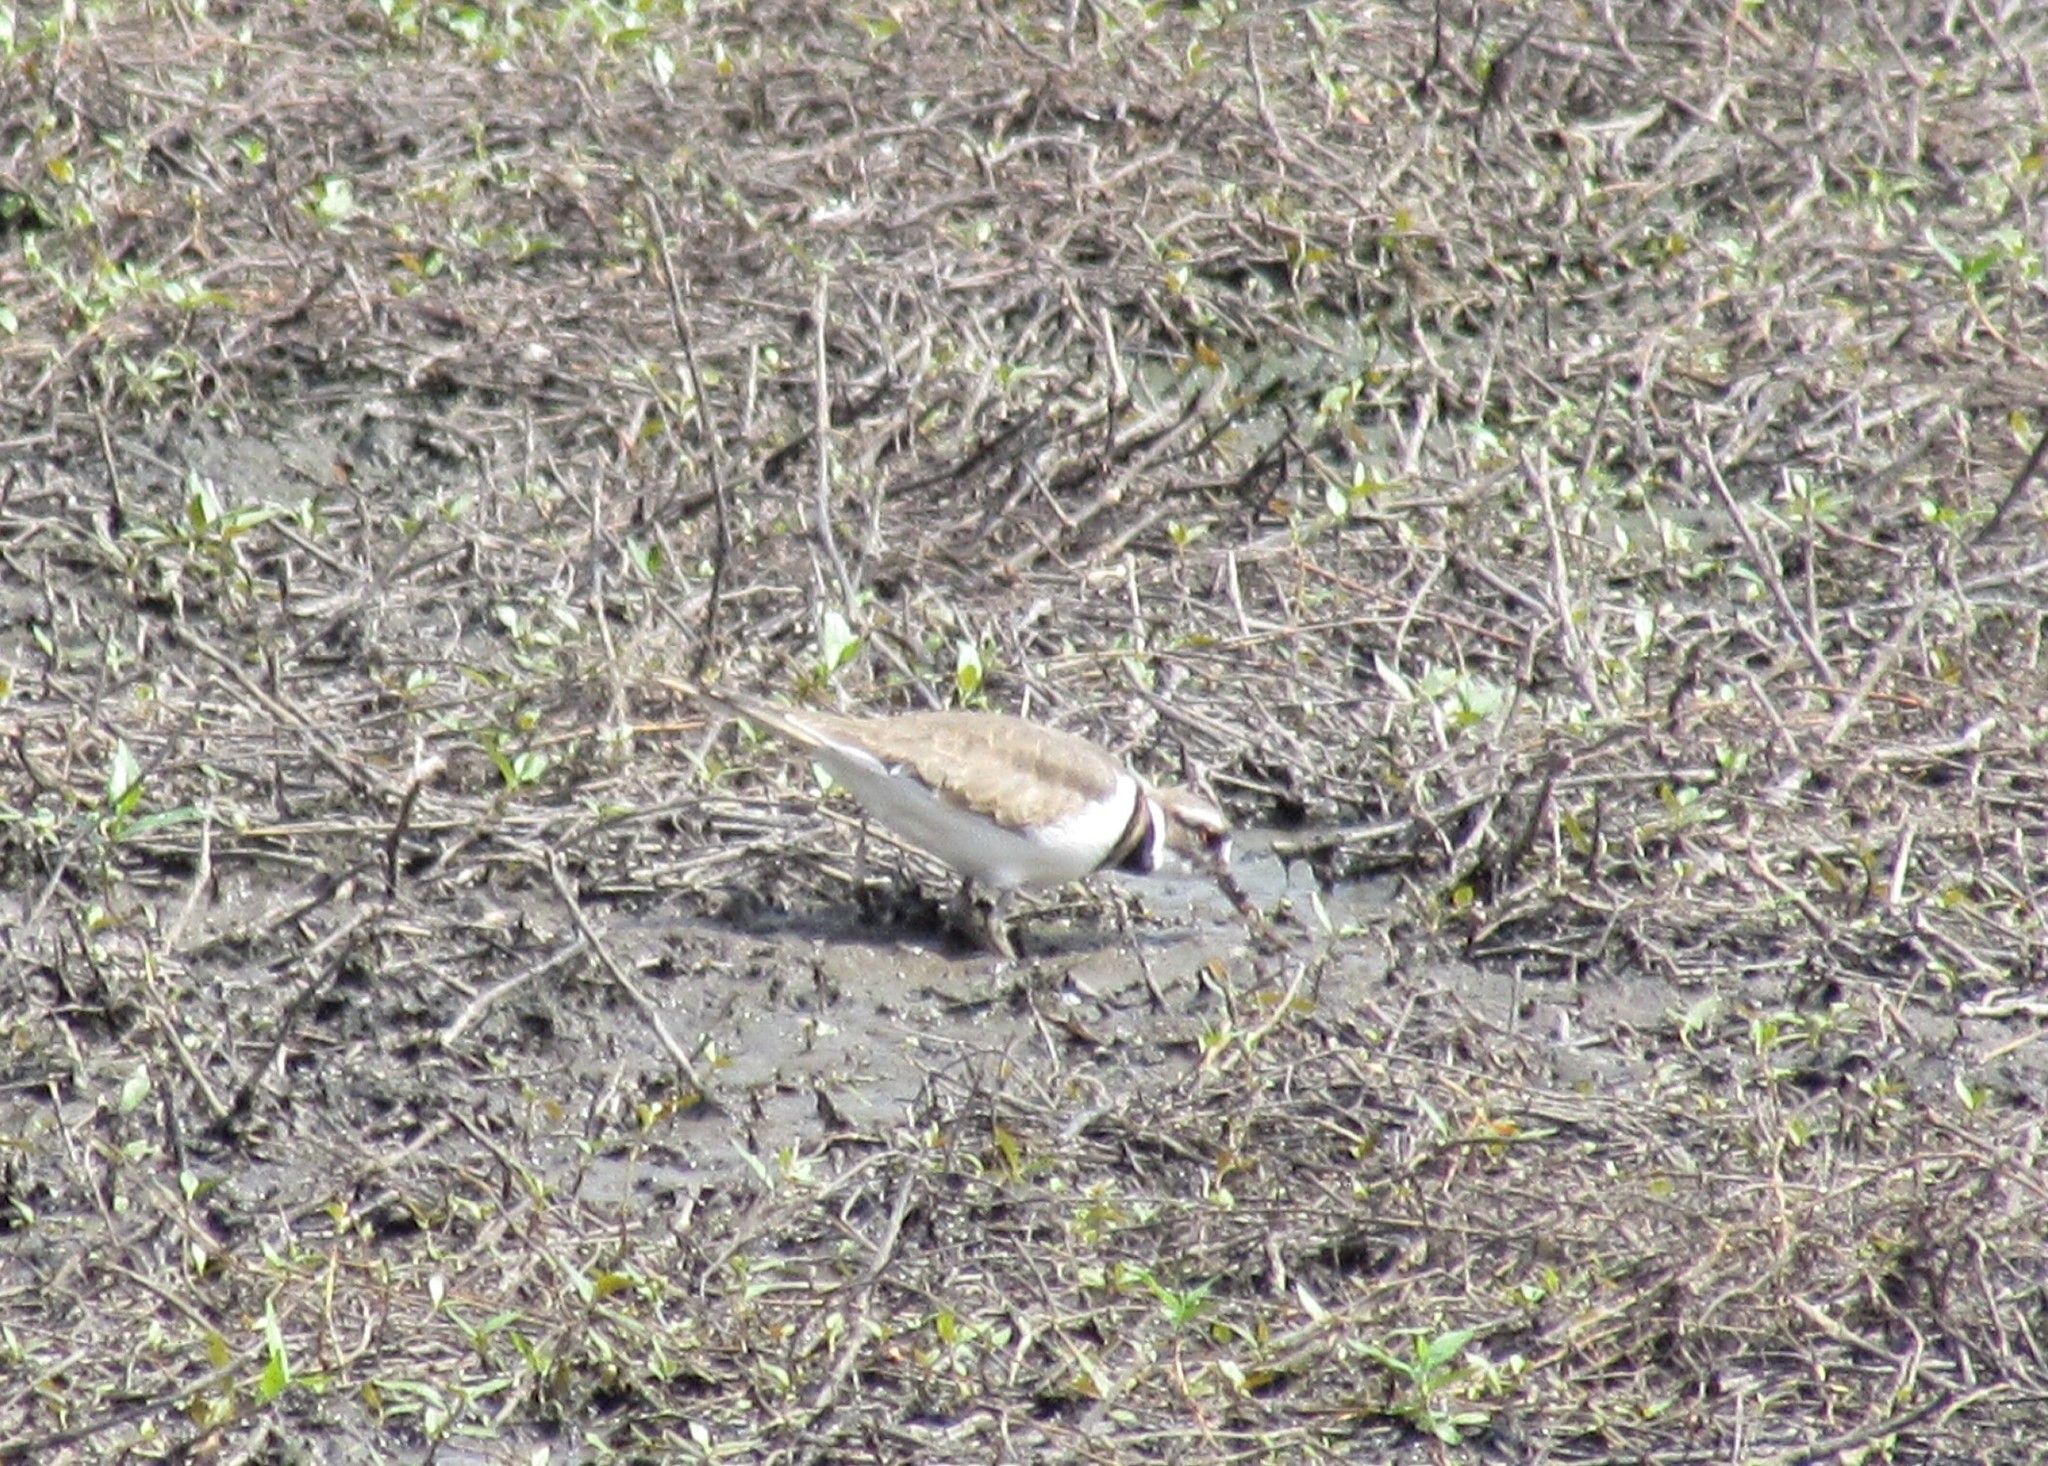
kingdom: Animalia
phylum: Chordata
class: Aves
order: Charadriiformes
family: Charadriidae
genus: Charadrius
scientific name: Charadrius vociferus
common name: Killdeer
